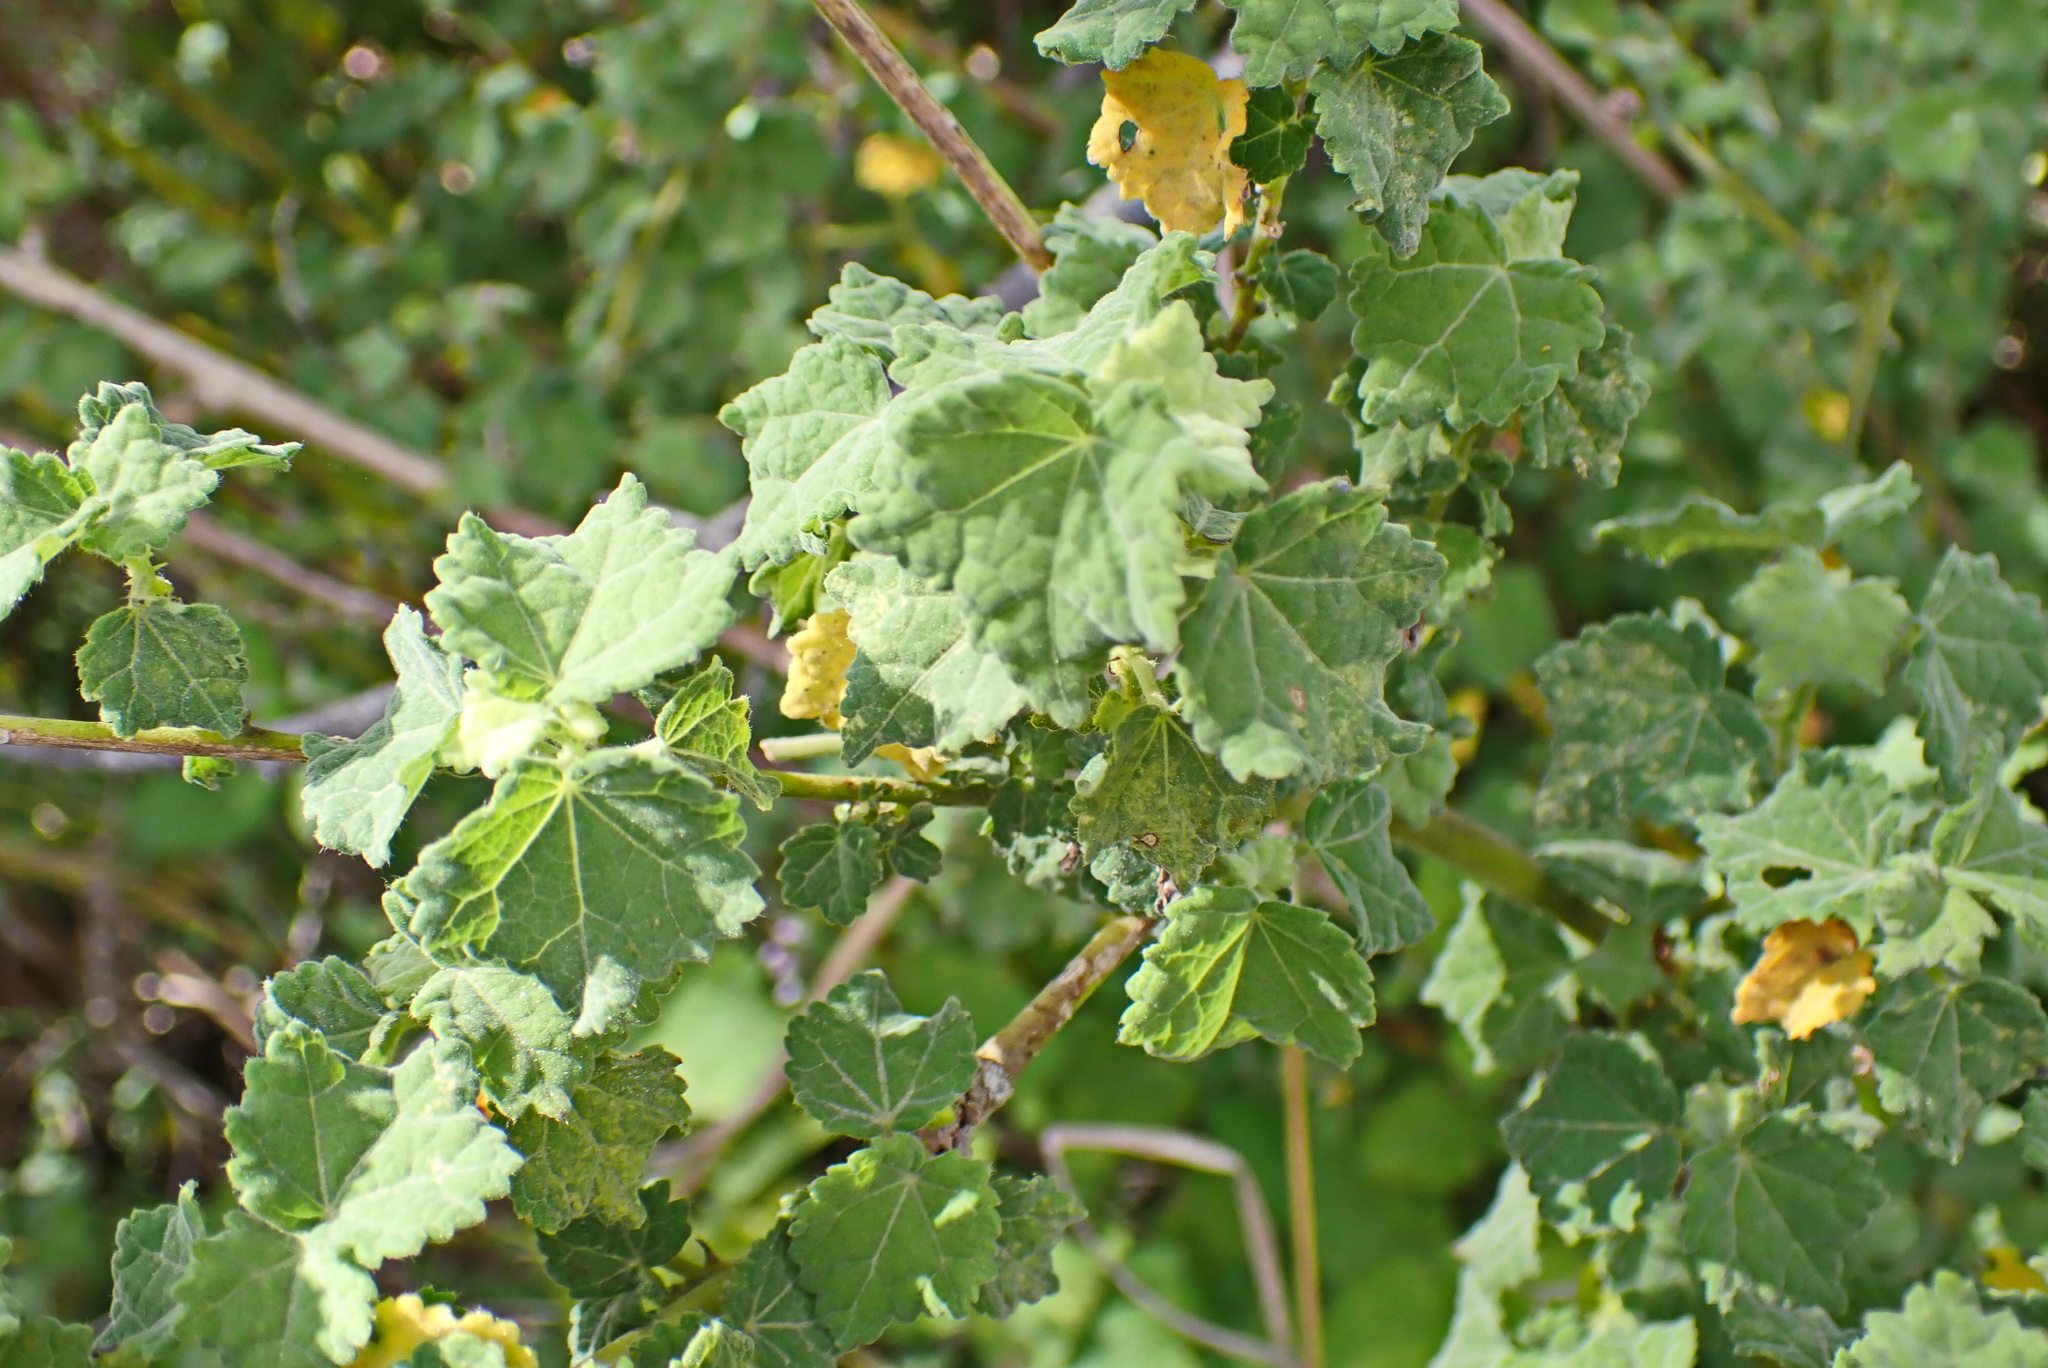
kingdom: Plantae
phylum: Tracheophyta
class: Magnoliopsida
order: Malvales
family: Malvaceae
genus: Pavonia
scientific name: Pavonia columella
